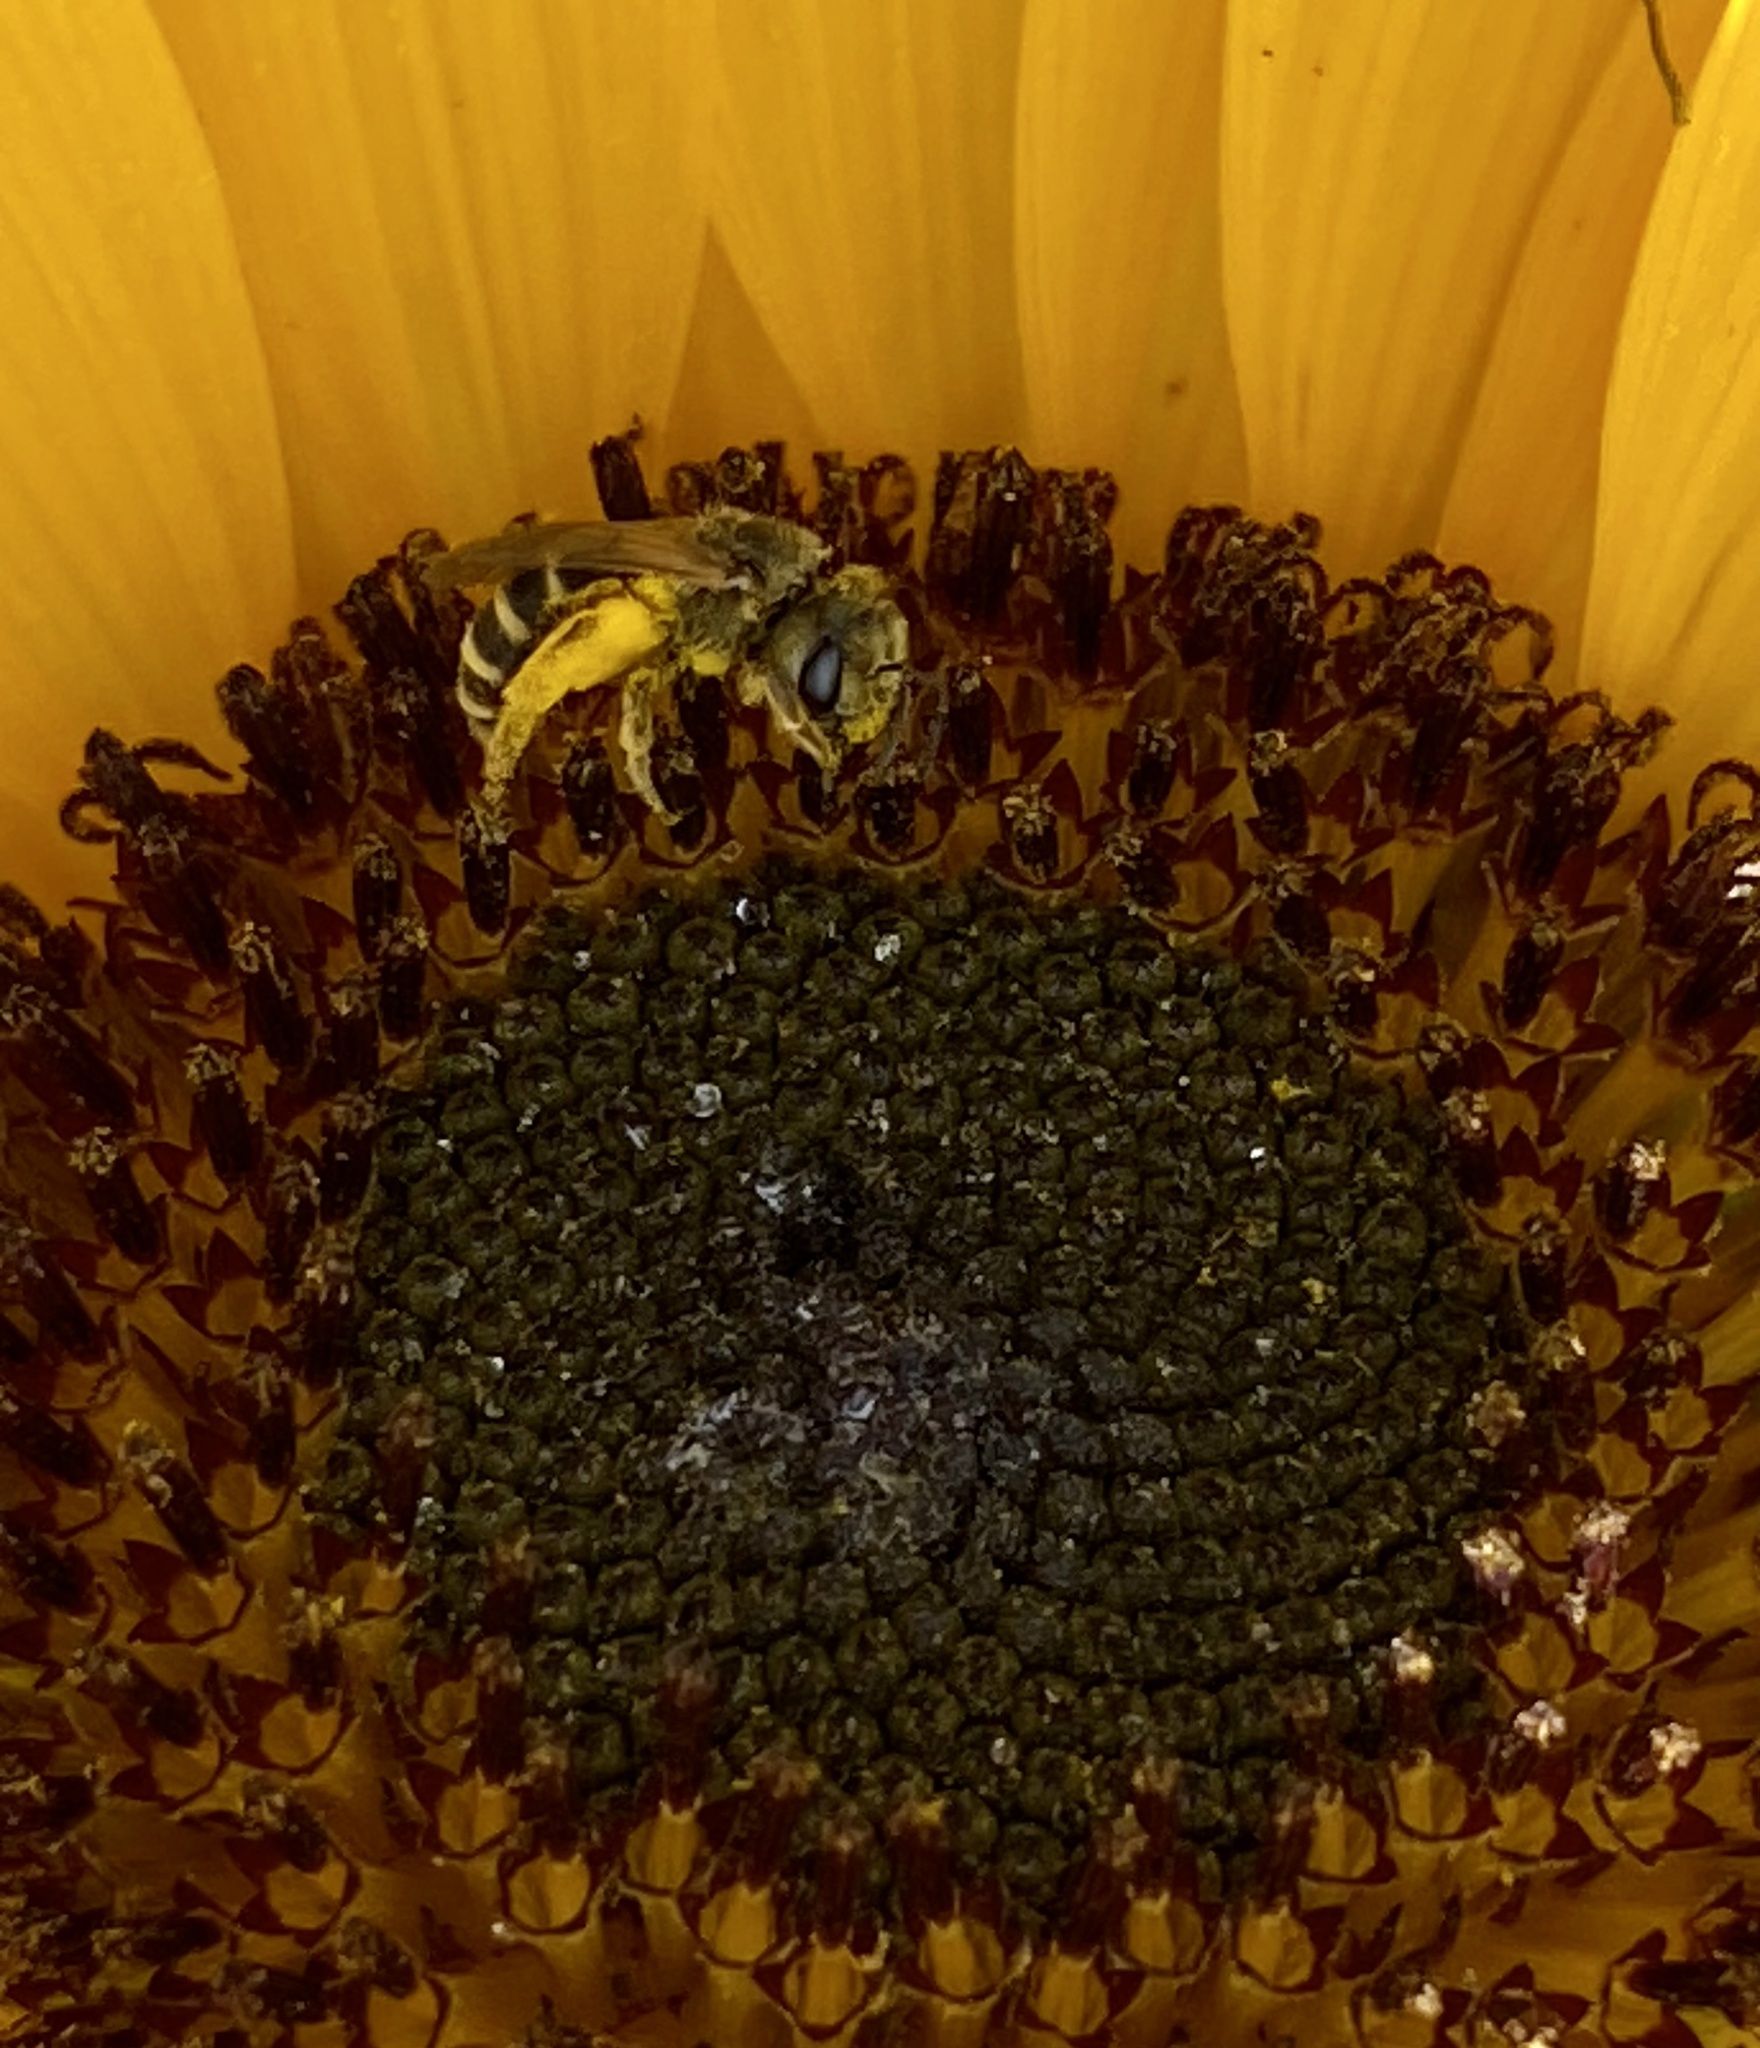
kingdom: Animalia
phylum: Arthropoda
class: Insecta
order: Hymenoptera
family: Halictidae
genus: Halictus
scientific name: Halictus ligatus
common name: Ligated furrow bee
